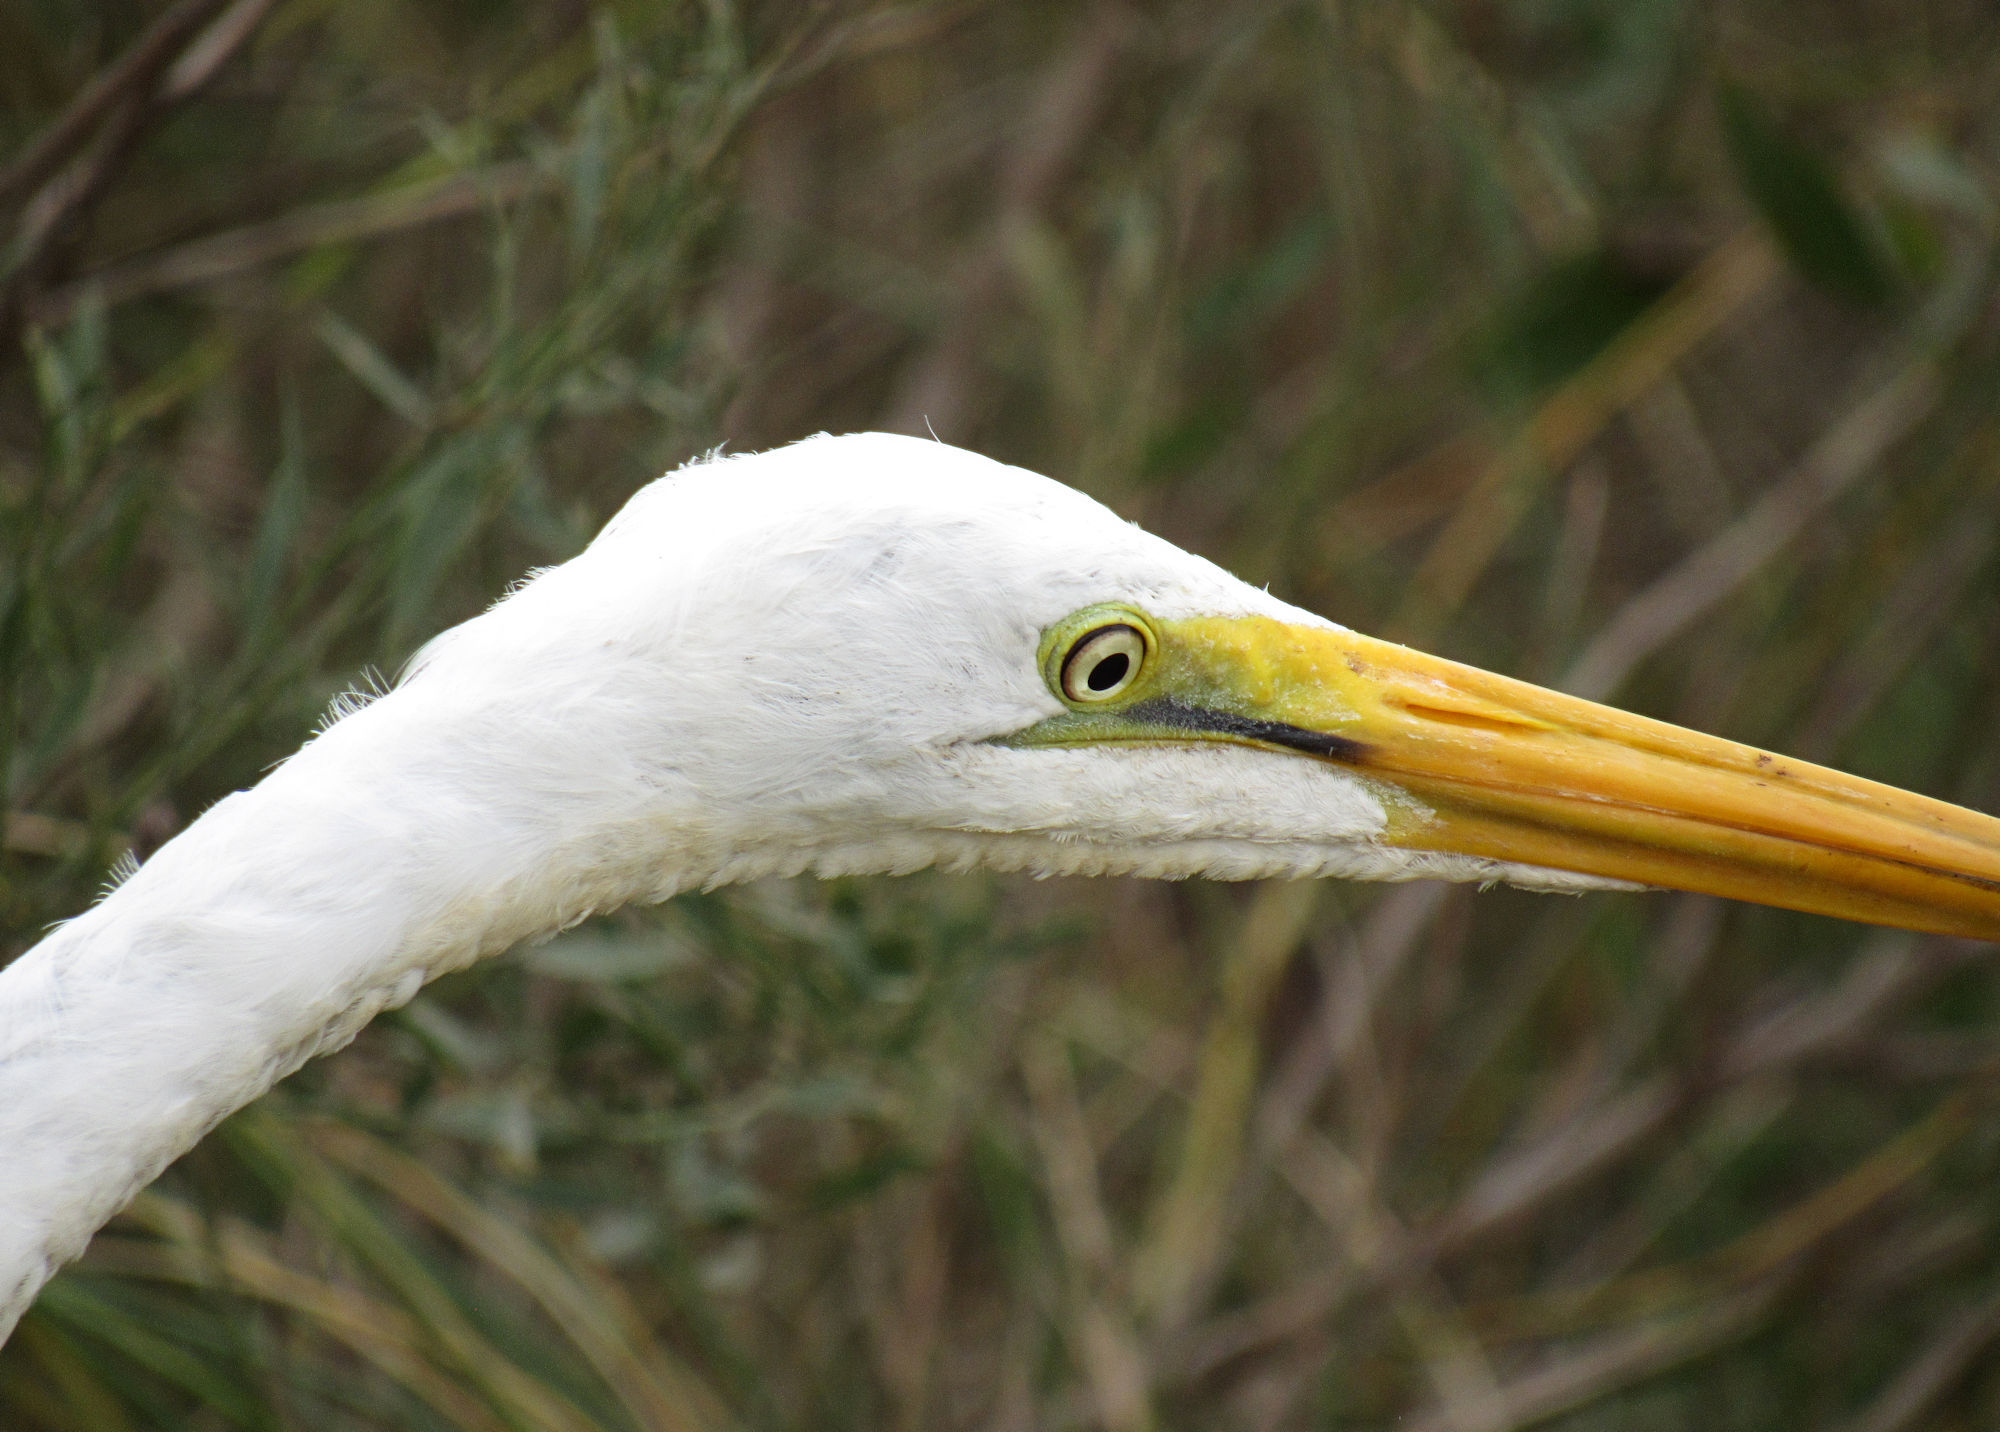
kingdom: Animalia
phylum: Chordata
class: Aves
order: Pelecaniformes
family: Ardeidae
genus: Ardea
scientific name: Ardea alba
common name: Great egret
